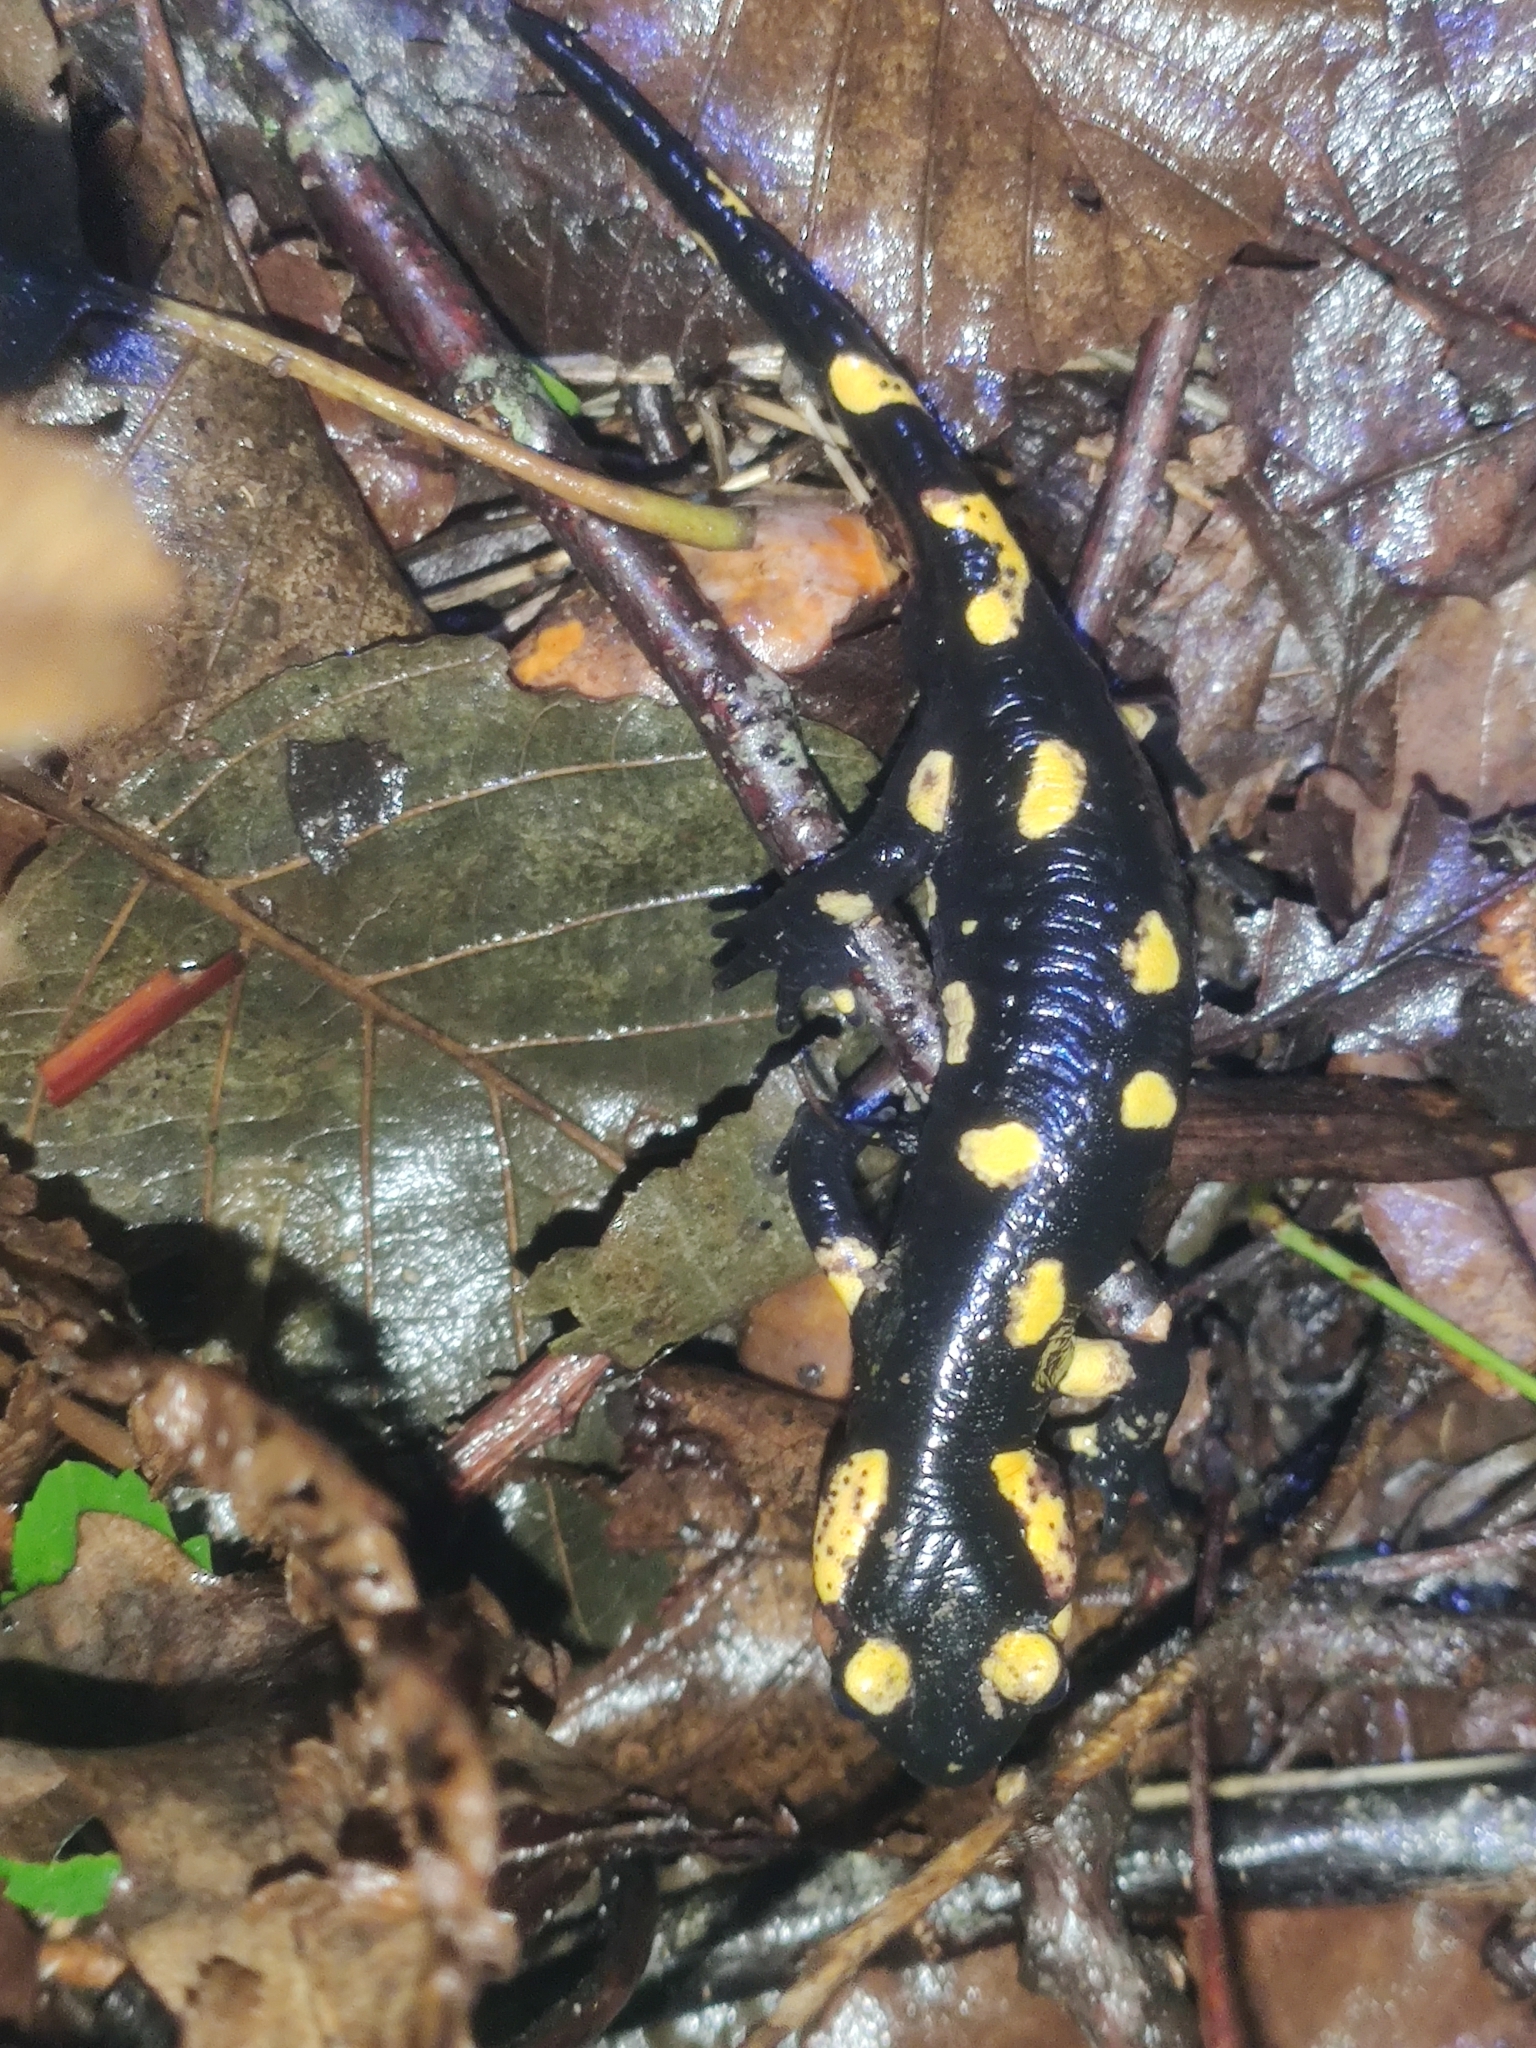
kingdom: Animalia
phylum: Chordata
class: Amphibia
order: Caudata
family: Salamandridae
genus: Salamandra
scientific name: Salamandra salamandra
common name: Fire salamander
